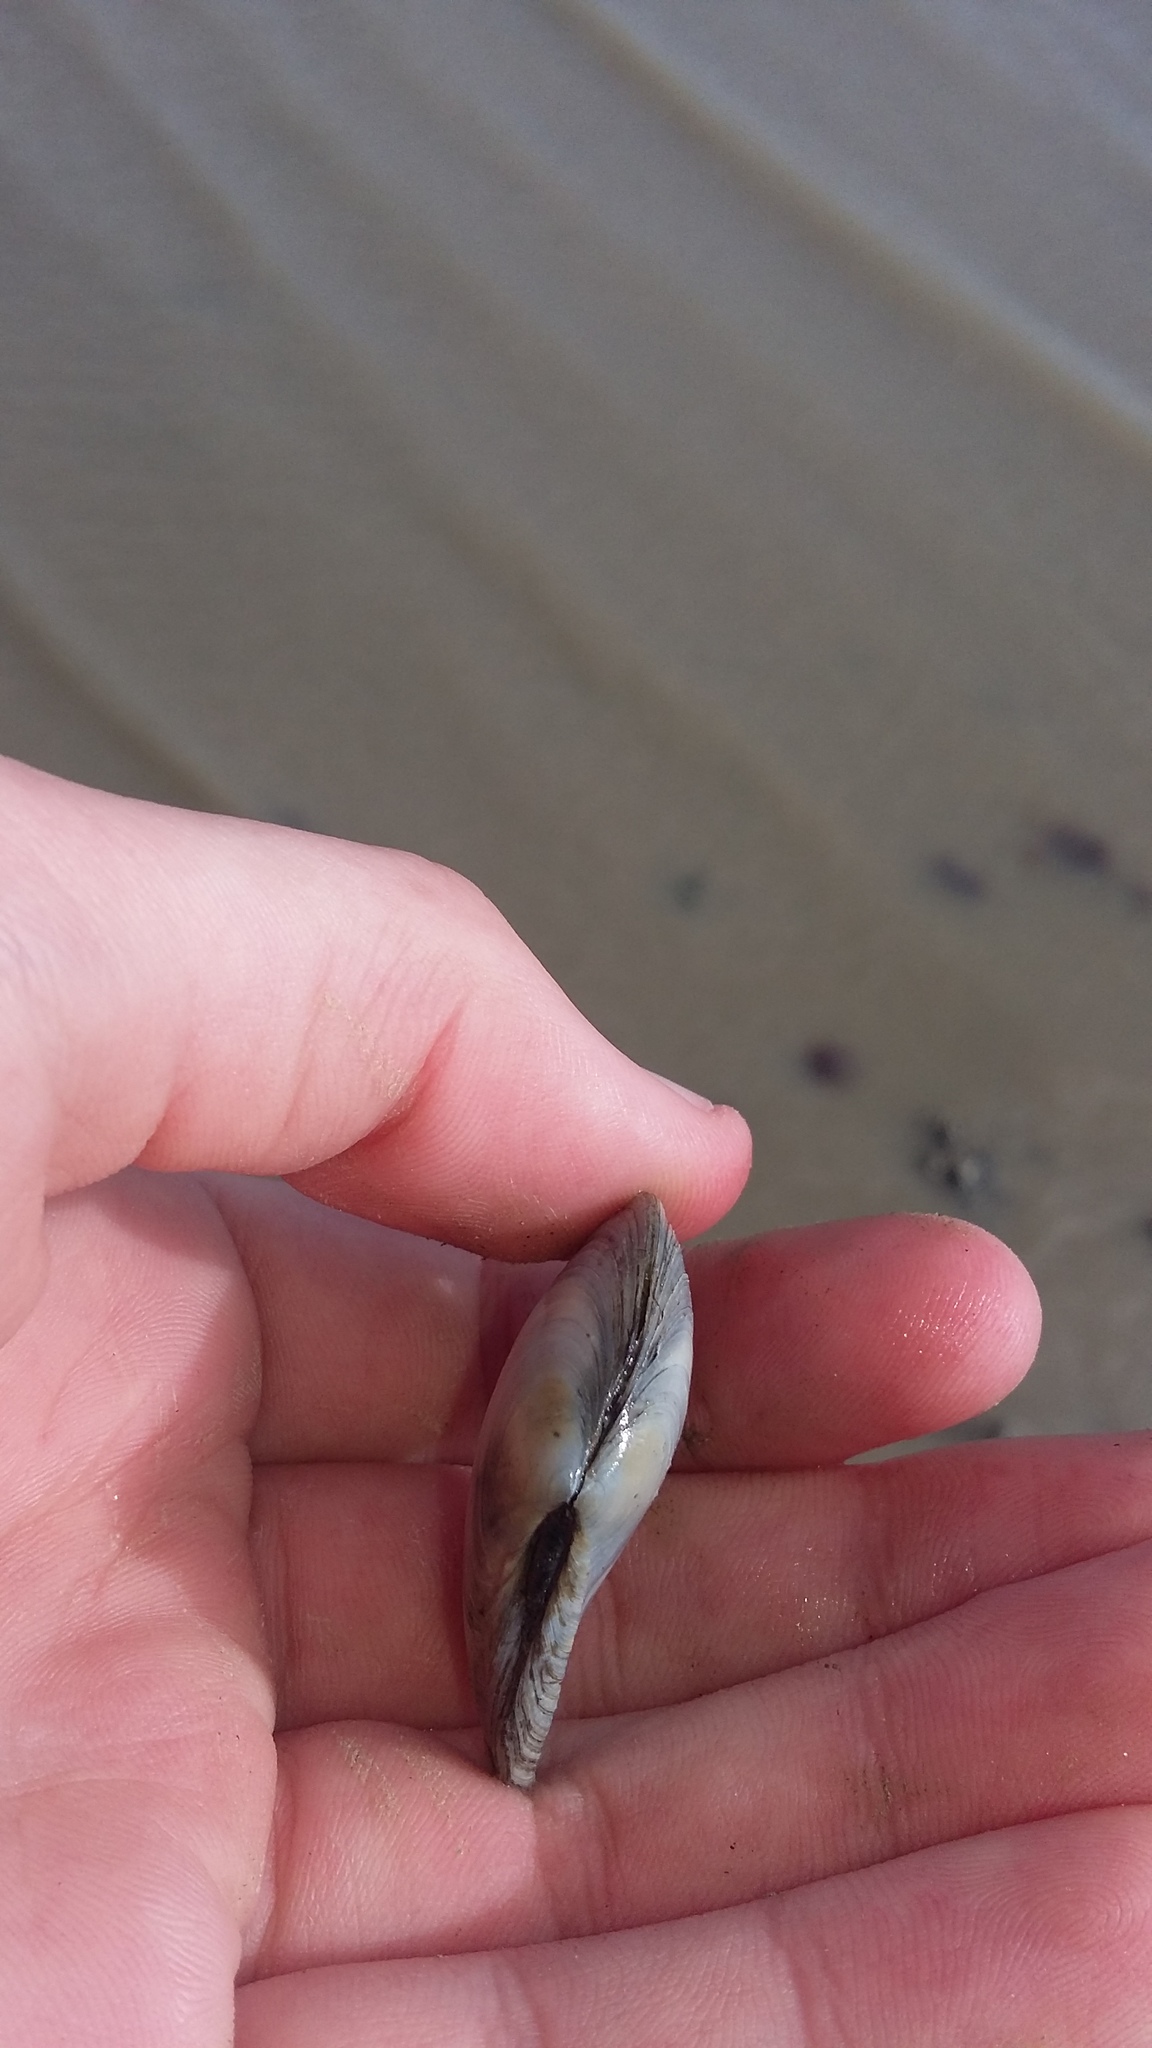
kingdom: Animalia
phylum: Mollusca
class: Bivalvia
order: Cardiida
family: Tellinidae
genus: Macomona
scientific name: Macomona liliana
